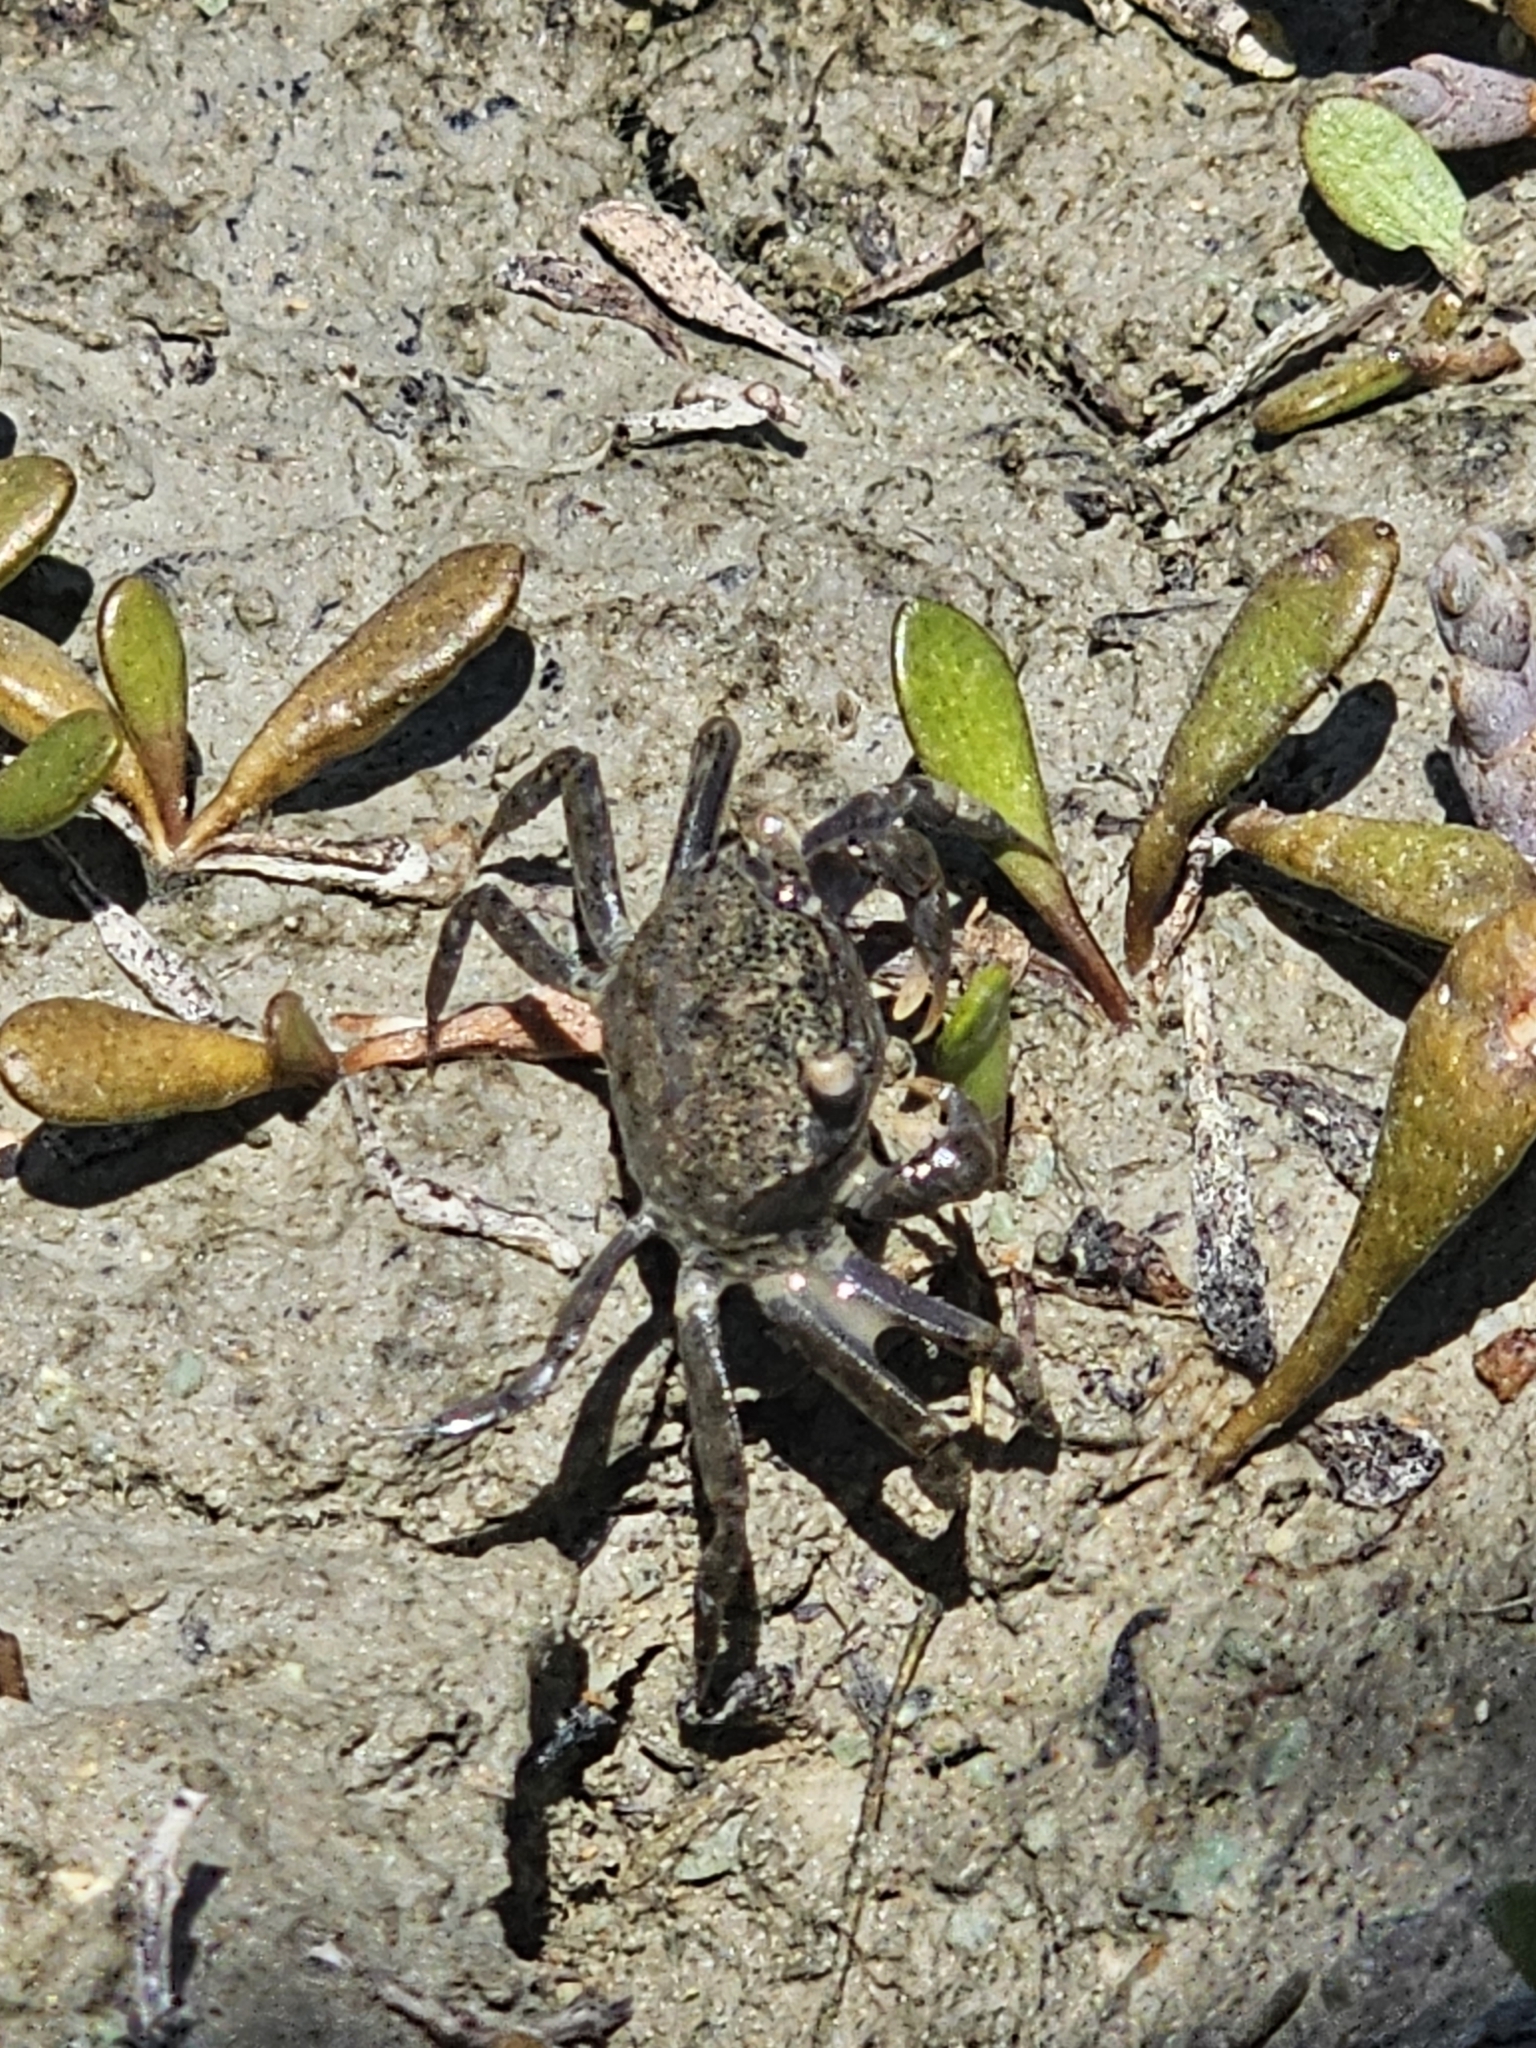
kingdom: Animalia
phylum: Arthropoda
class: Malacostraca
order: Decapoda
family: Varunidae
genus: Austrohelice
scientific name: Austrohelice crassa
